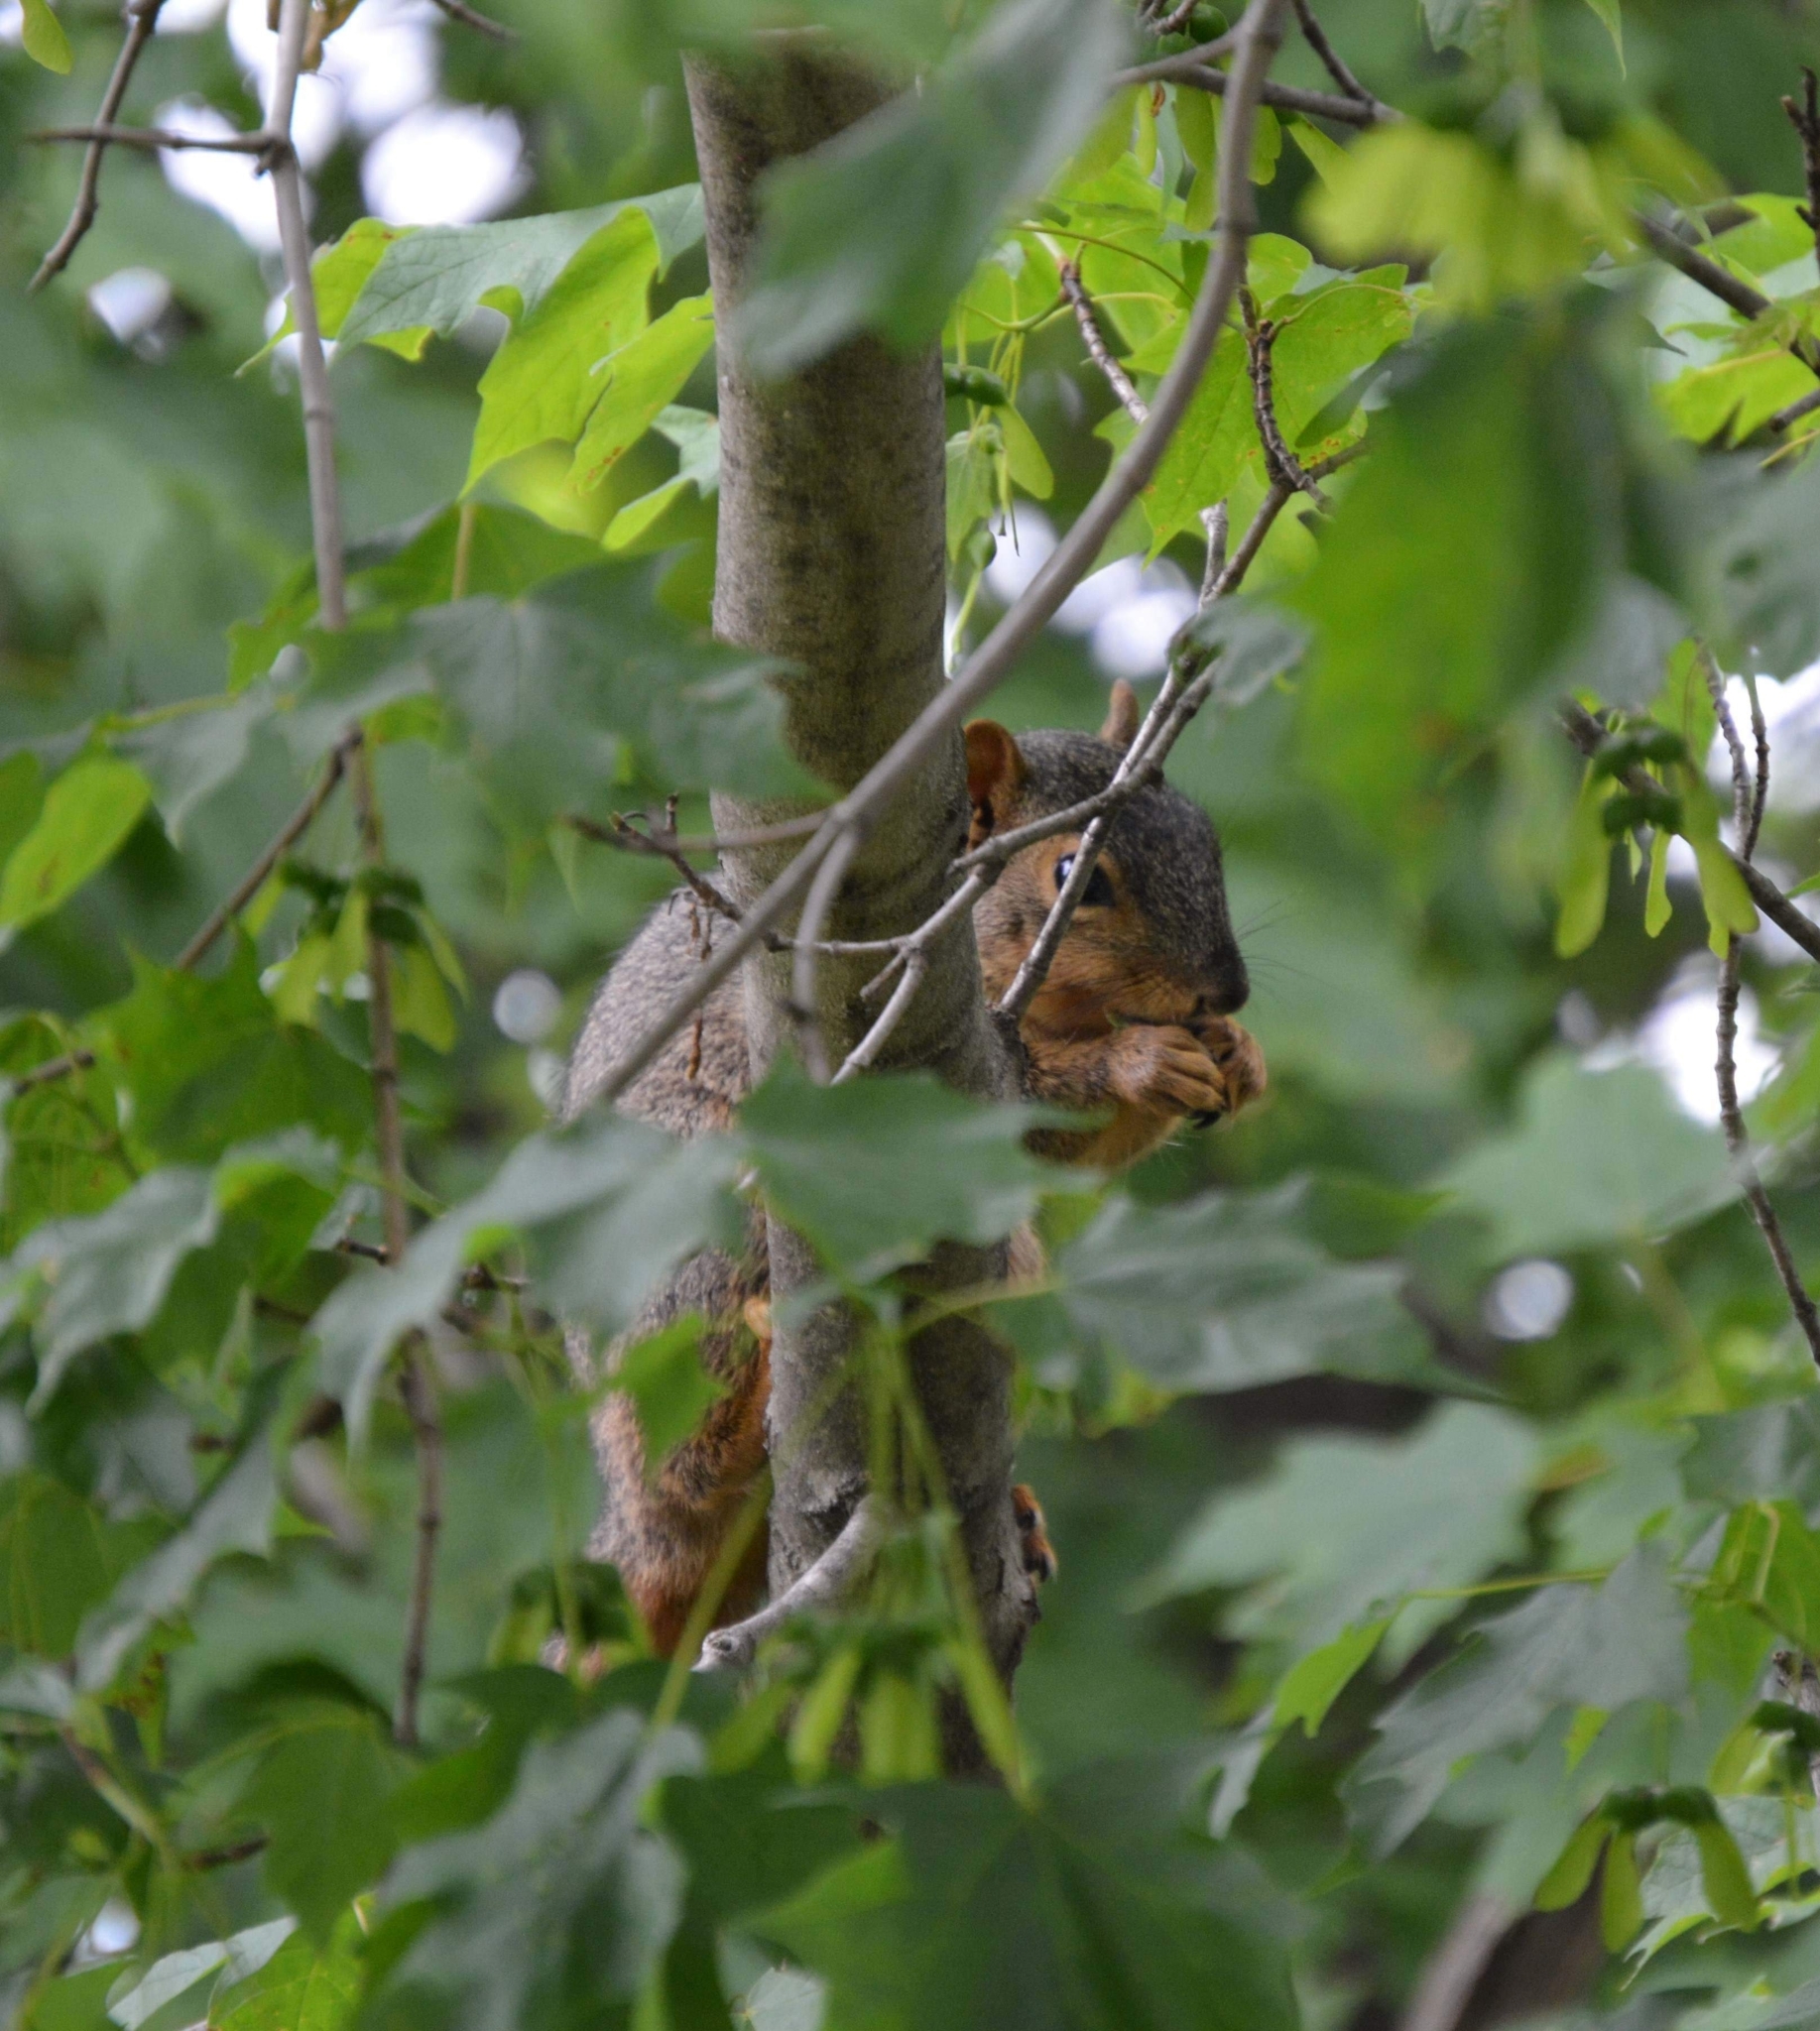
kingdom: Animalia
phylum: Chordata
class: Mammalia
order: Rodentia
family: Sciuridae
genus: Sciurus
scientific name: Sciurus niger
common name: Fox squirrel
